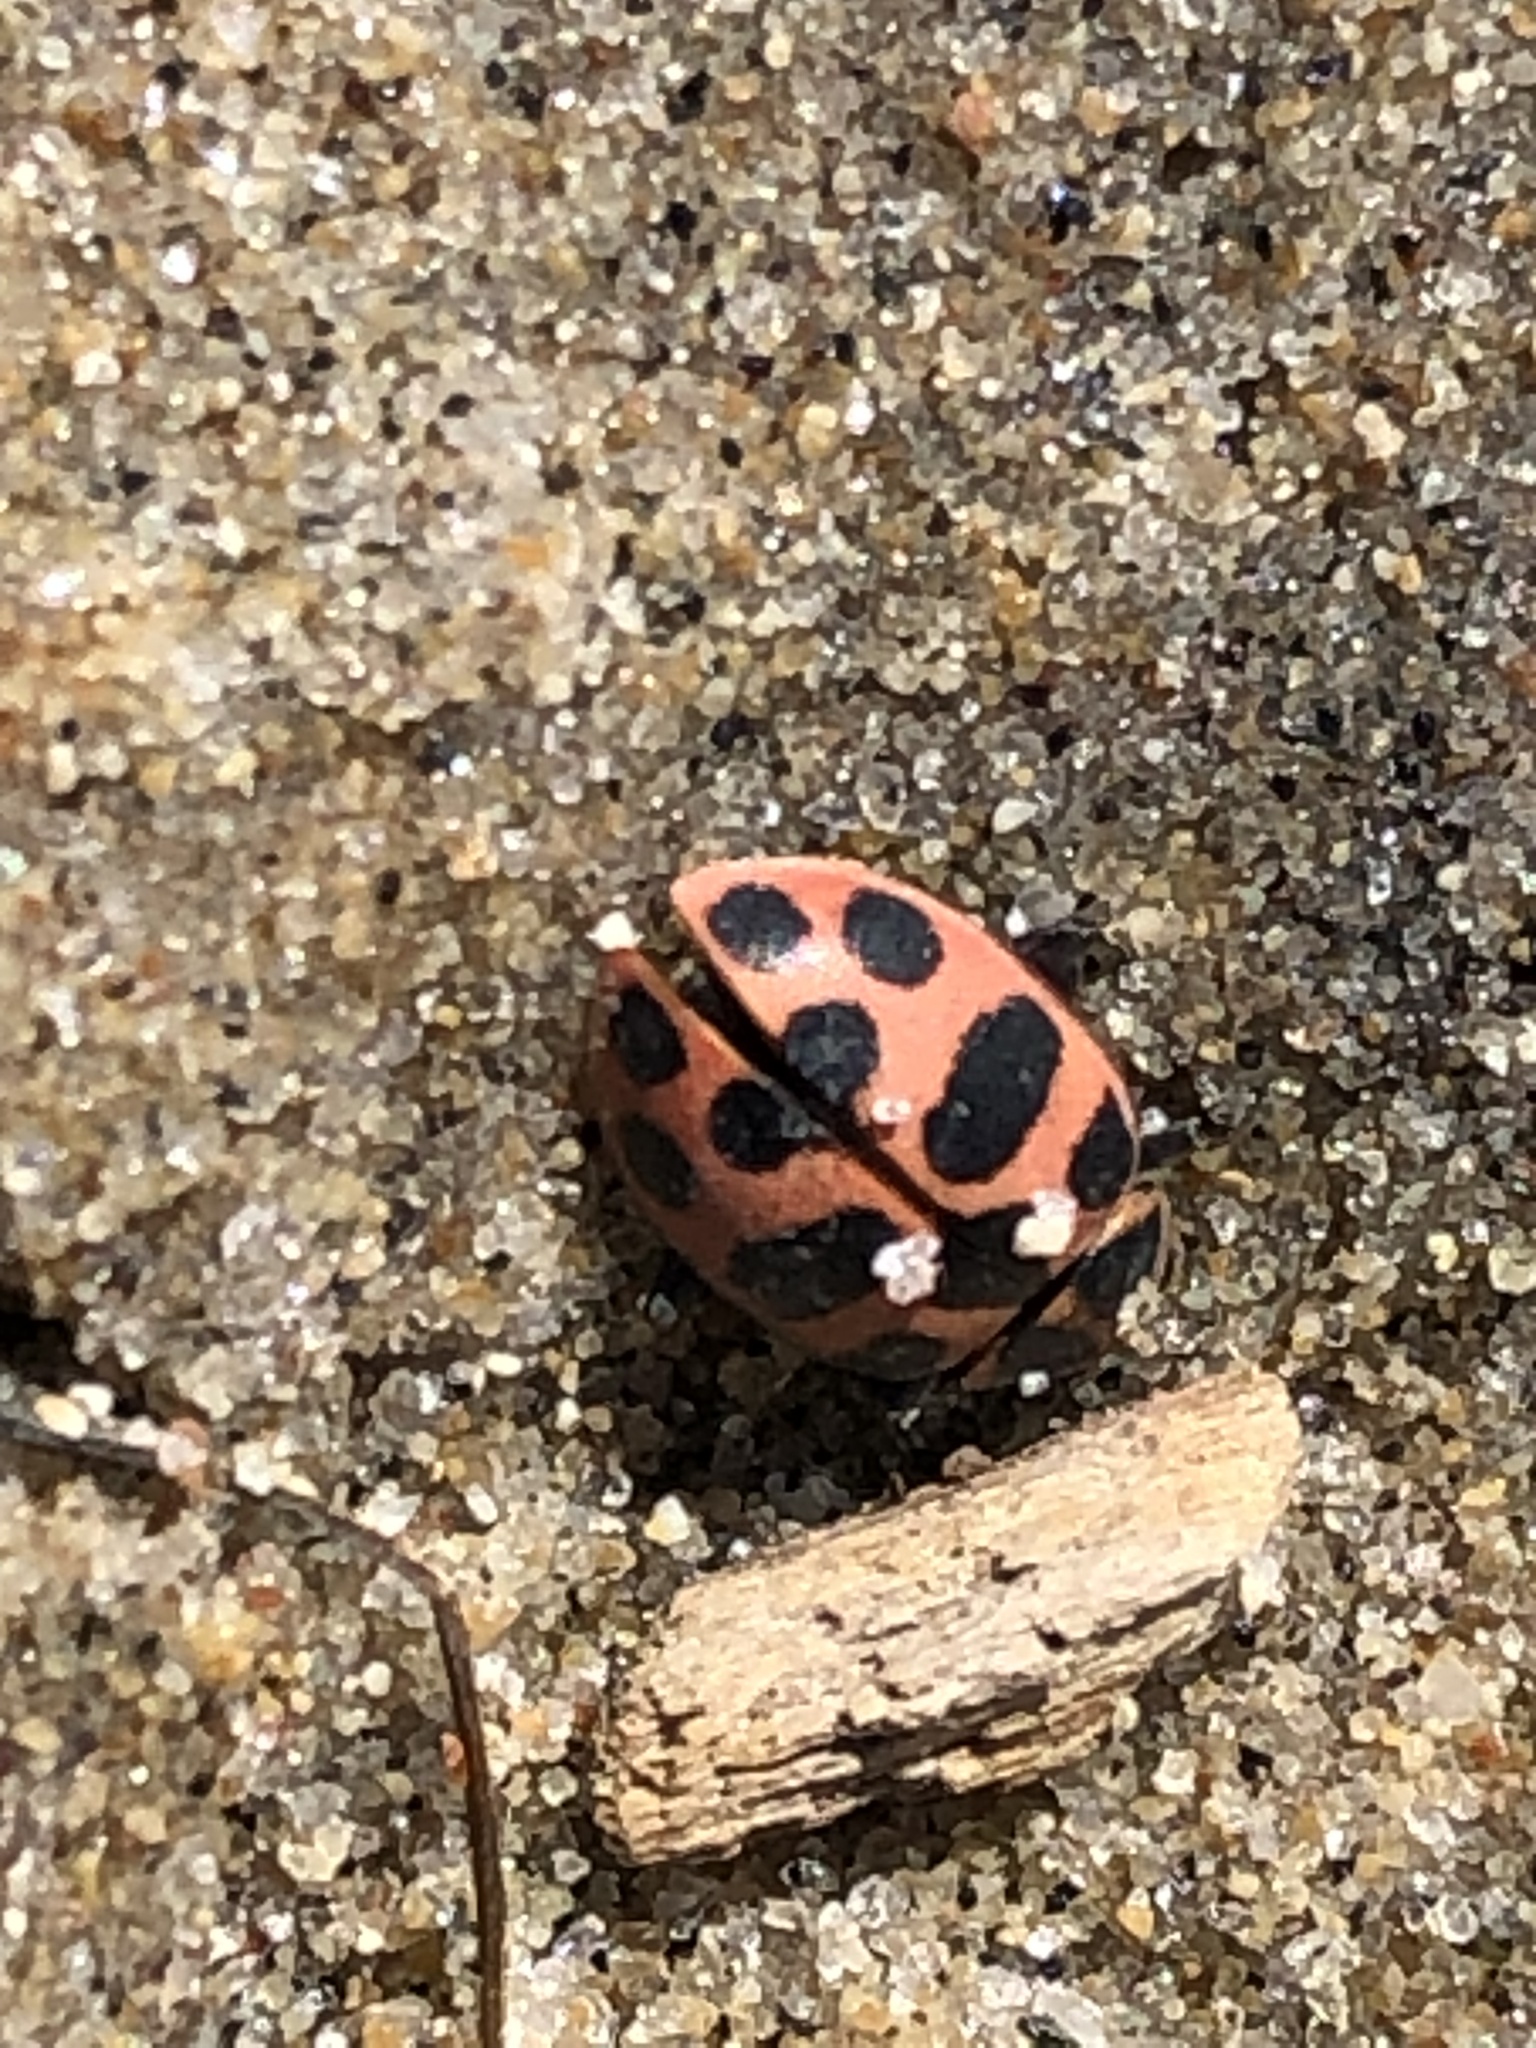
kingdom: Animalia
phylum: Arthropoda
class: Insecta
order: Coleoptera
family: Coccinellidae
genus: Coleomegilla
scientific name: Coleomegilla maculata
